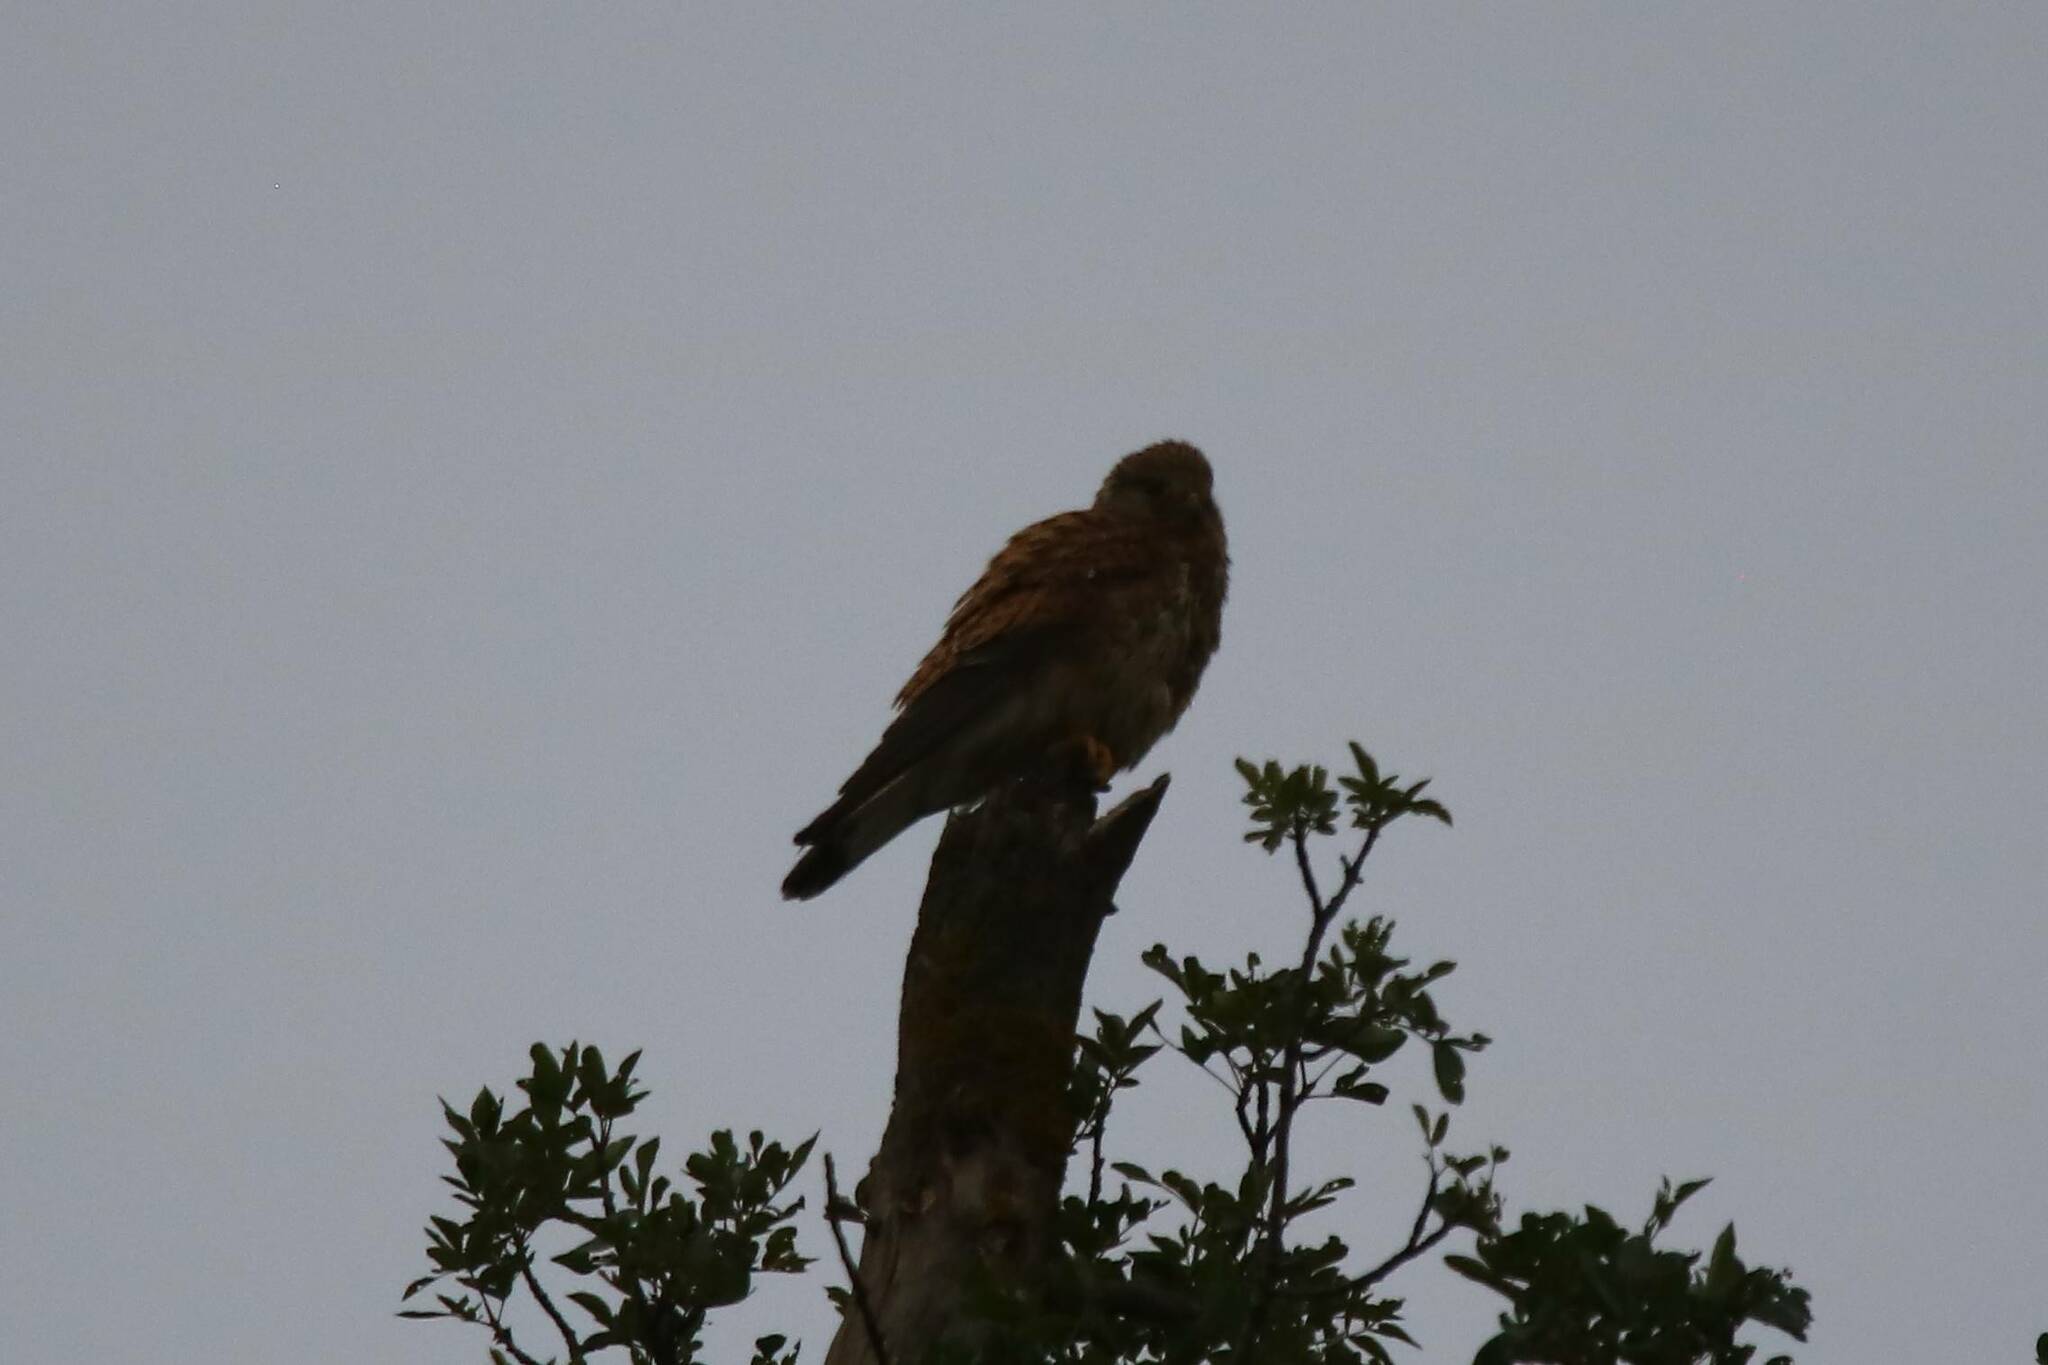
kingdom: Animalia
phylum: Chordata
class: Aves
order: Falconiformes
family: Falconidae
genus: Falco
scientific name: Falco naumanni
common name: Lesser kestrel
